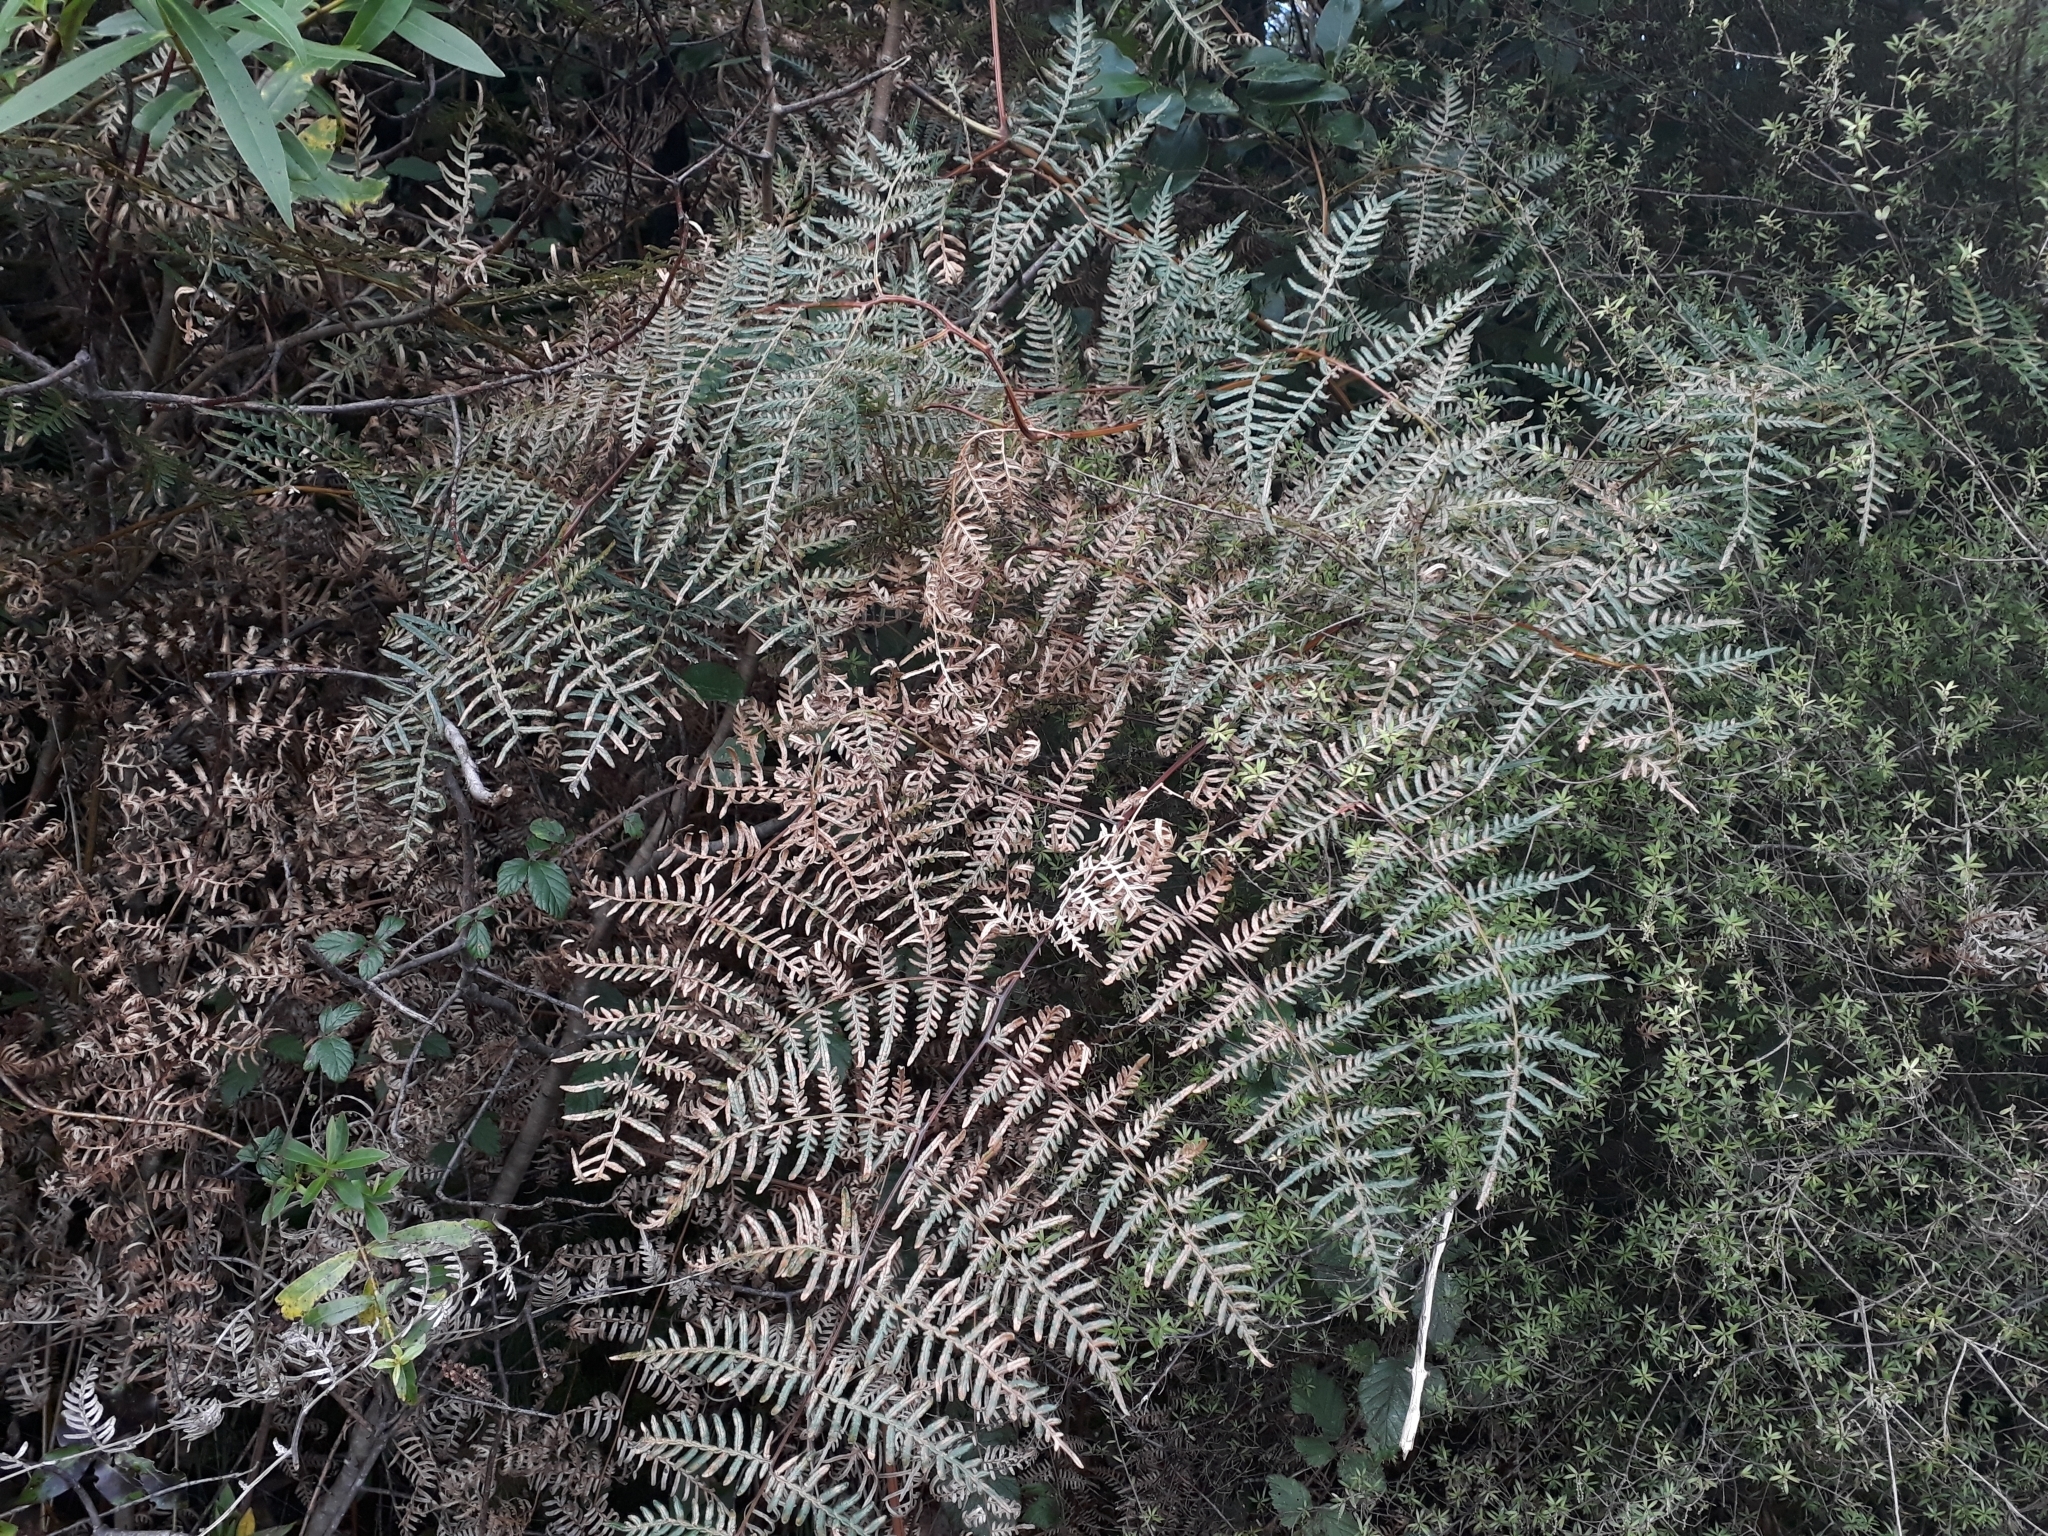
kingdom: Plantae
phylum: Tracheophyta
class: Polypodiopsida
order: Polypodiales
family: Dennstaedtiaceae
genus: Pteridium
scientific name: Pteridium esculentum
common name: Bracken fern
